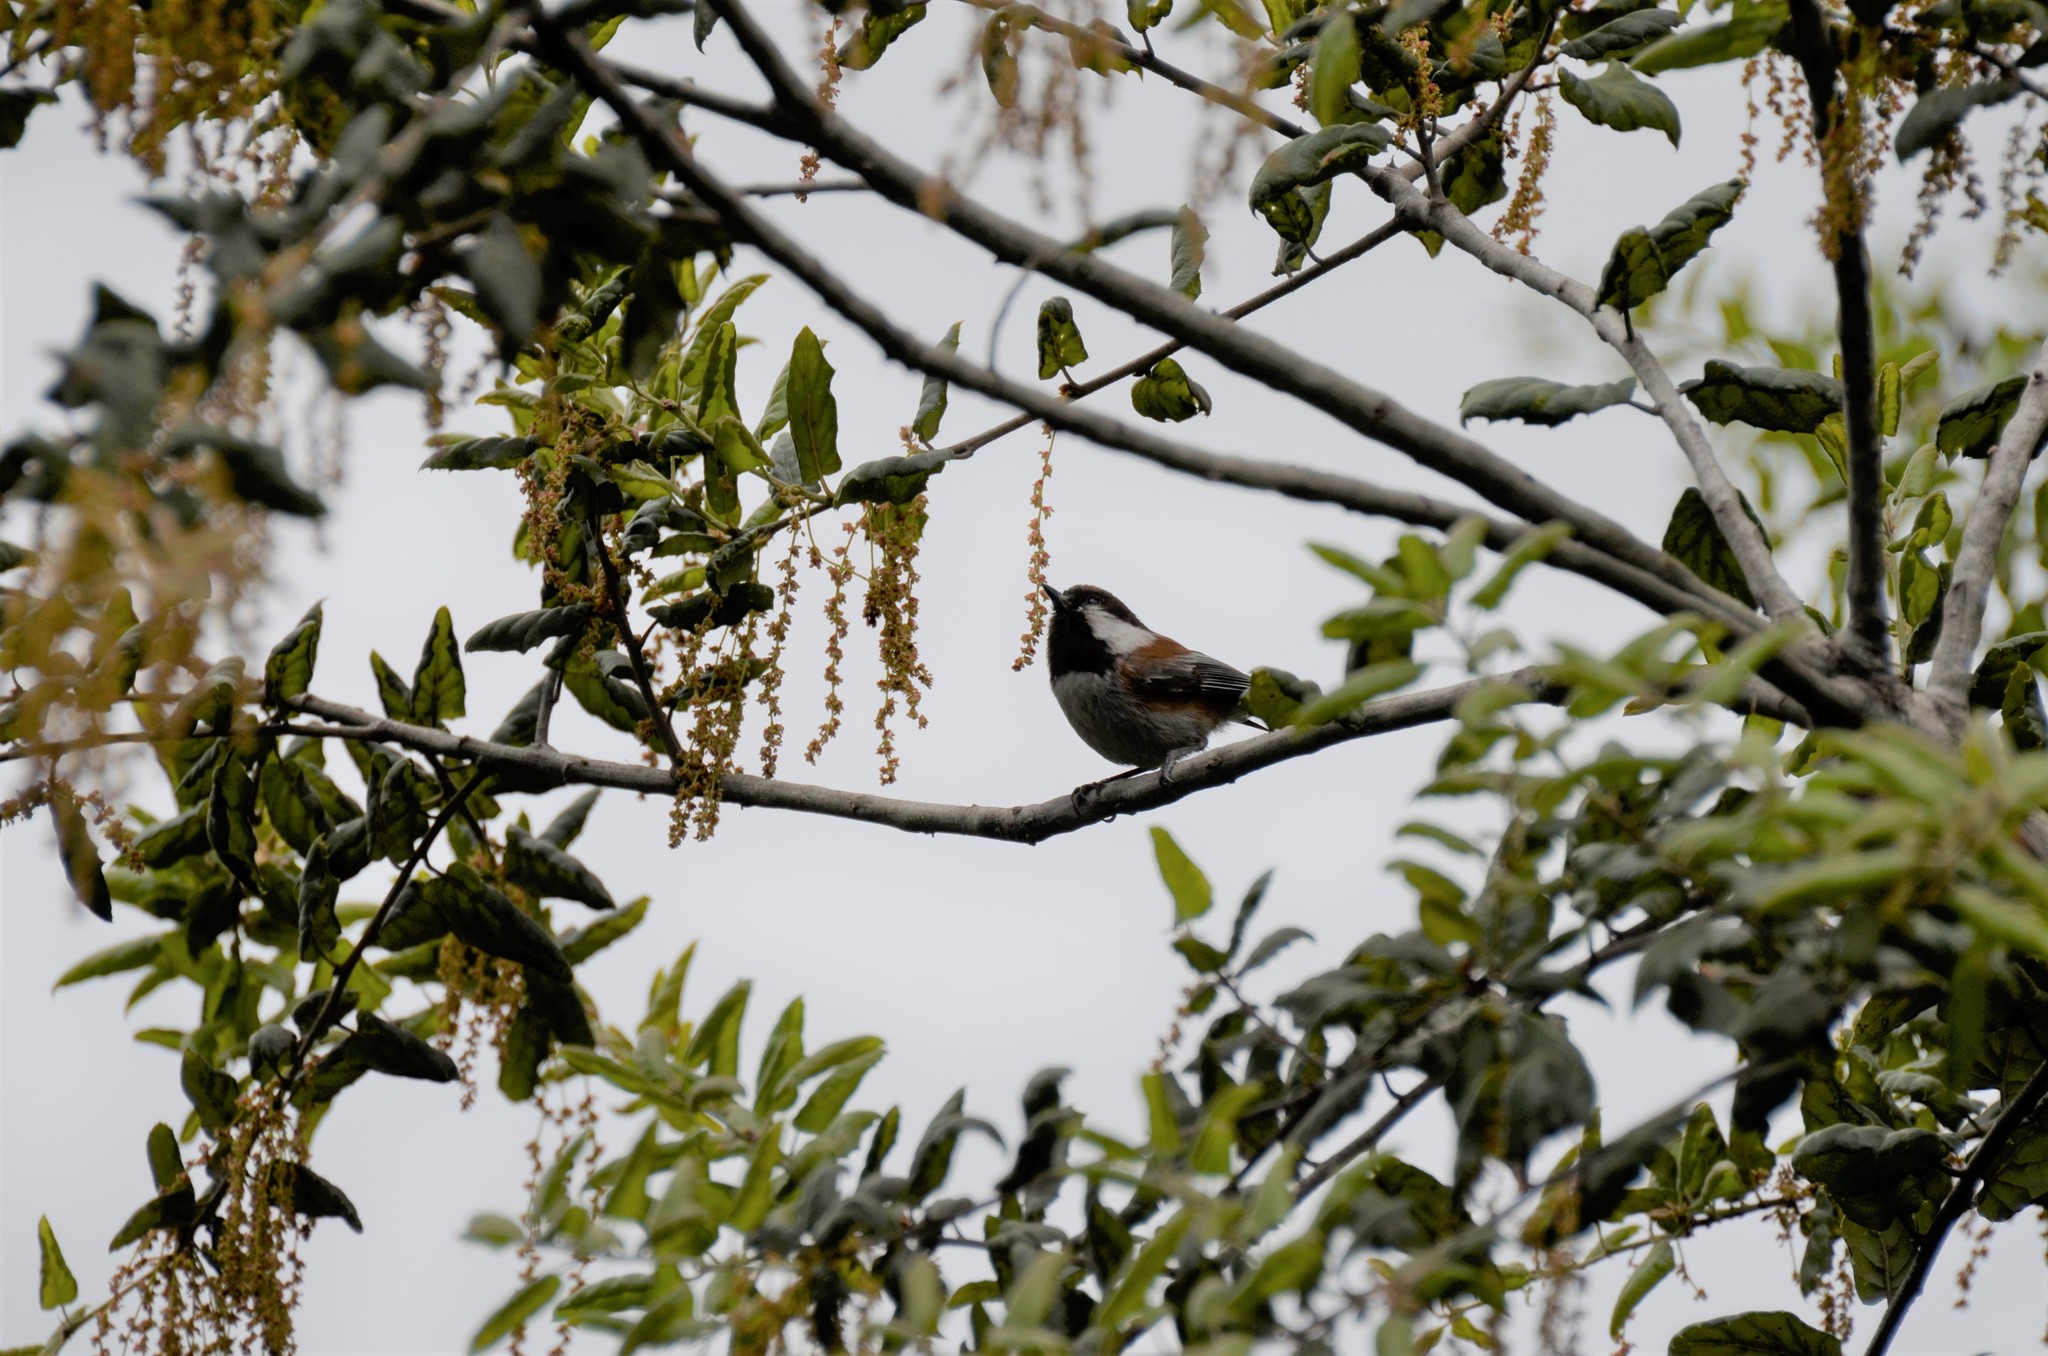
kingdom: Animalia
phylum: Chordata
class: Aves
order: Passeriformes
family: Paridae
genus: Poecile
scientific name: Poecile rufescens
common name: Chestnut-backed chickadee
